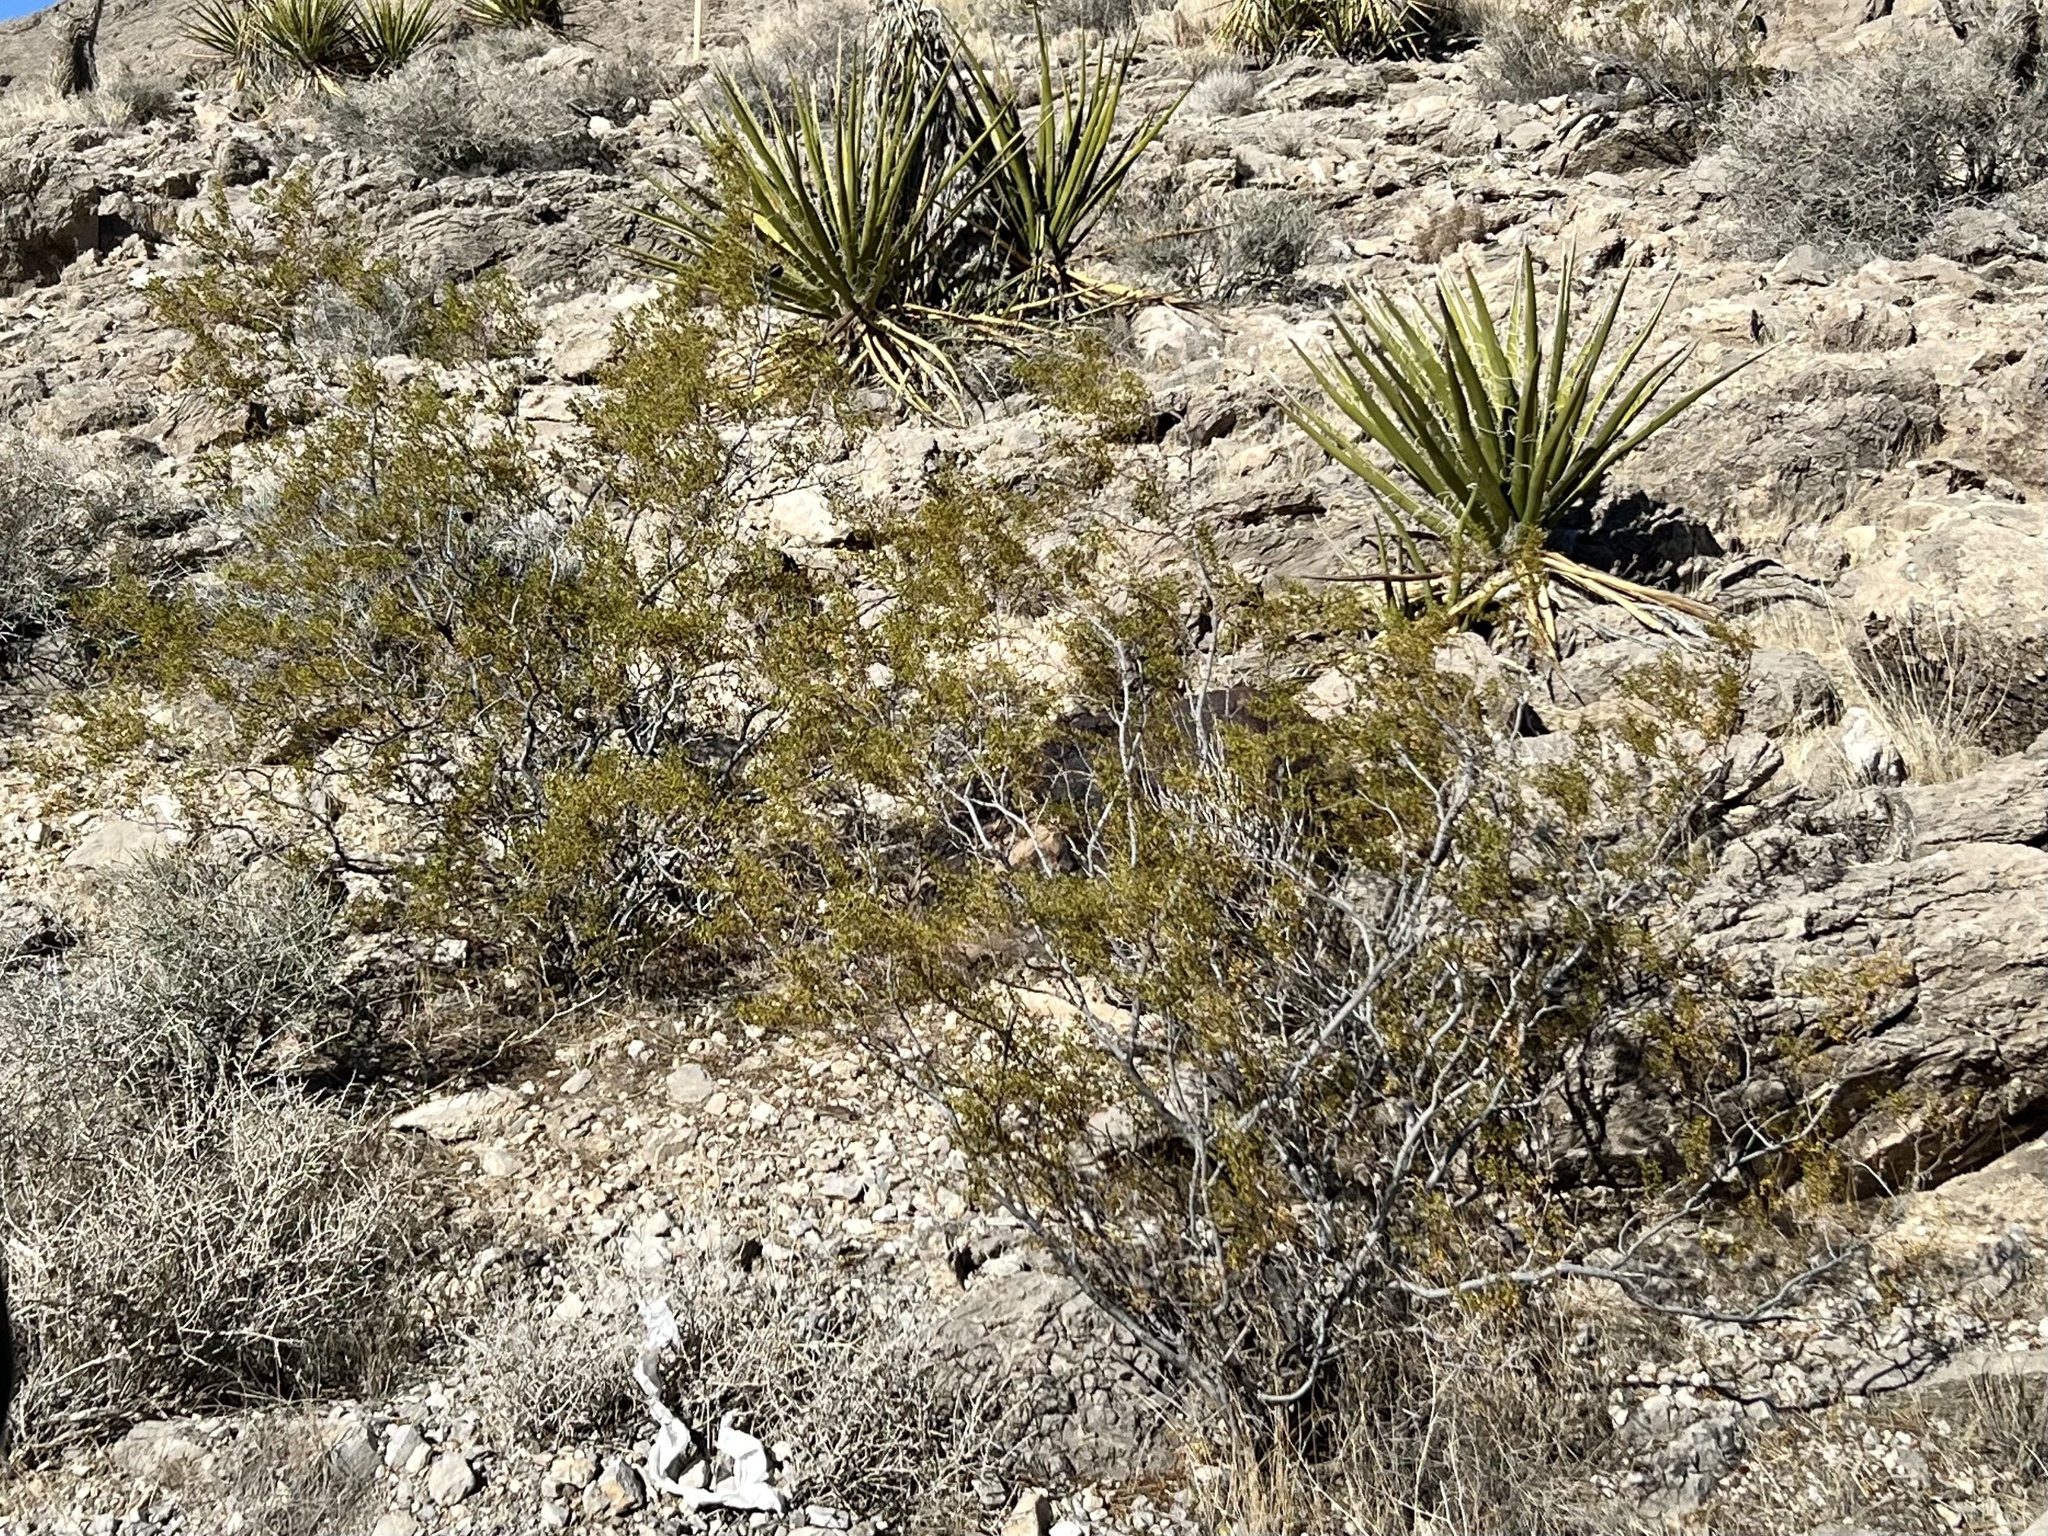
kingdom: Plantae
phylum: Tracheophyta
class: Magnoliopsida
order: Zygophyllales
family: Zygophyllaceae
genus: Larrea
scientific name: Larrea tridentata
